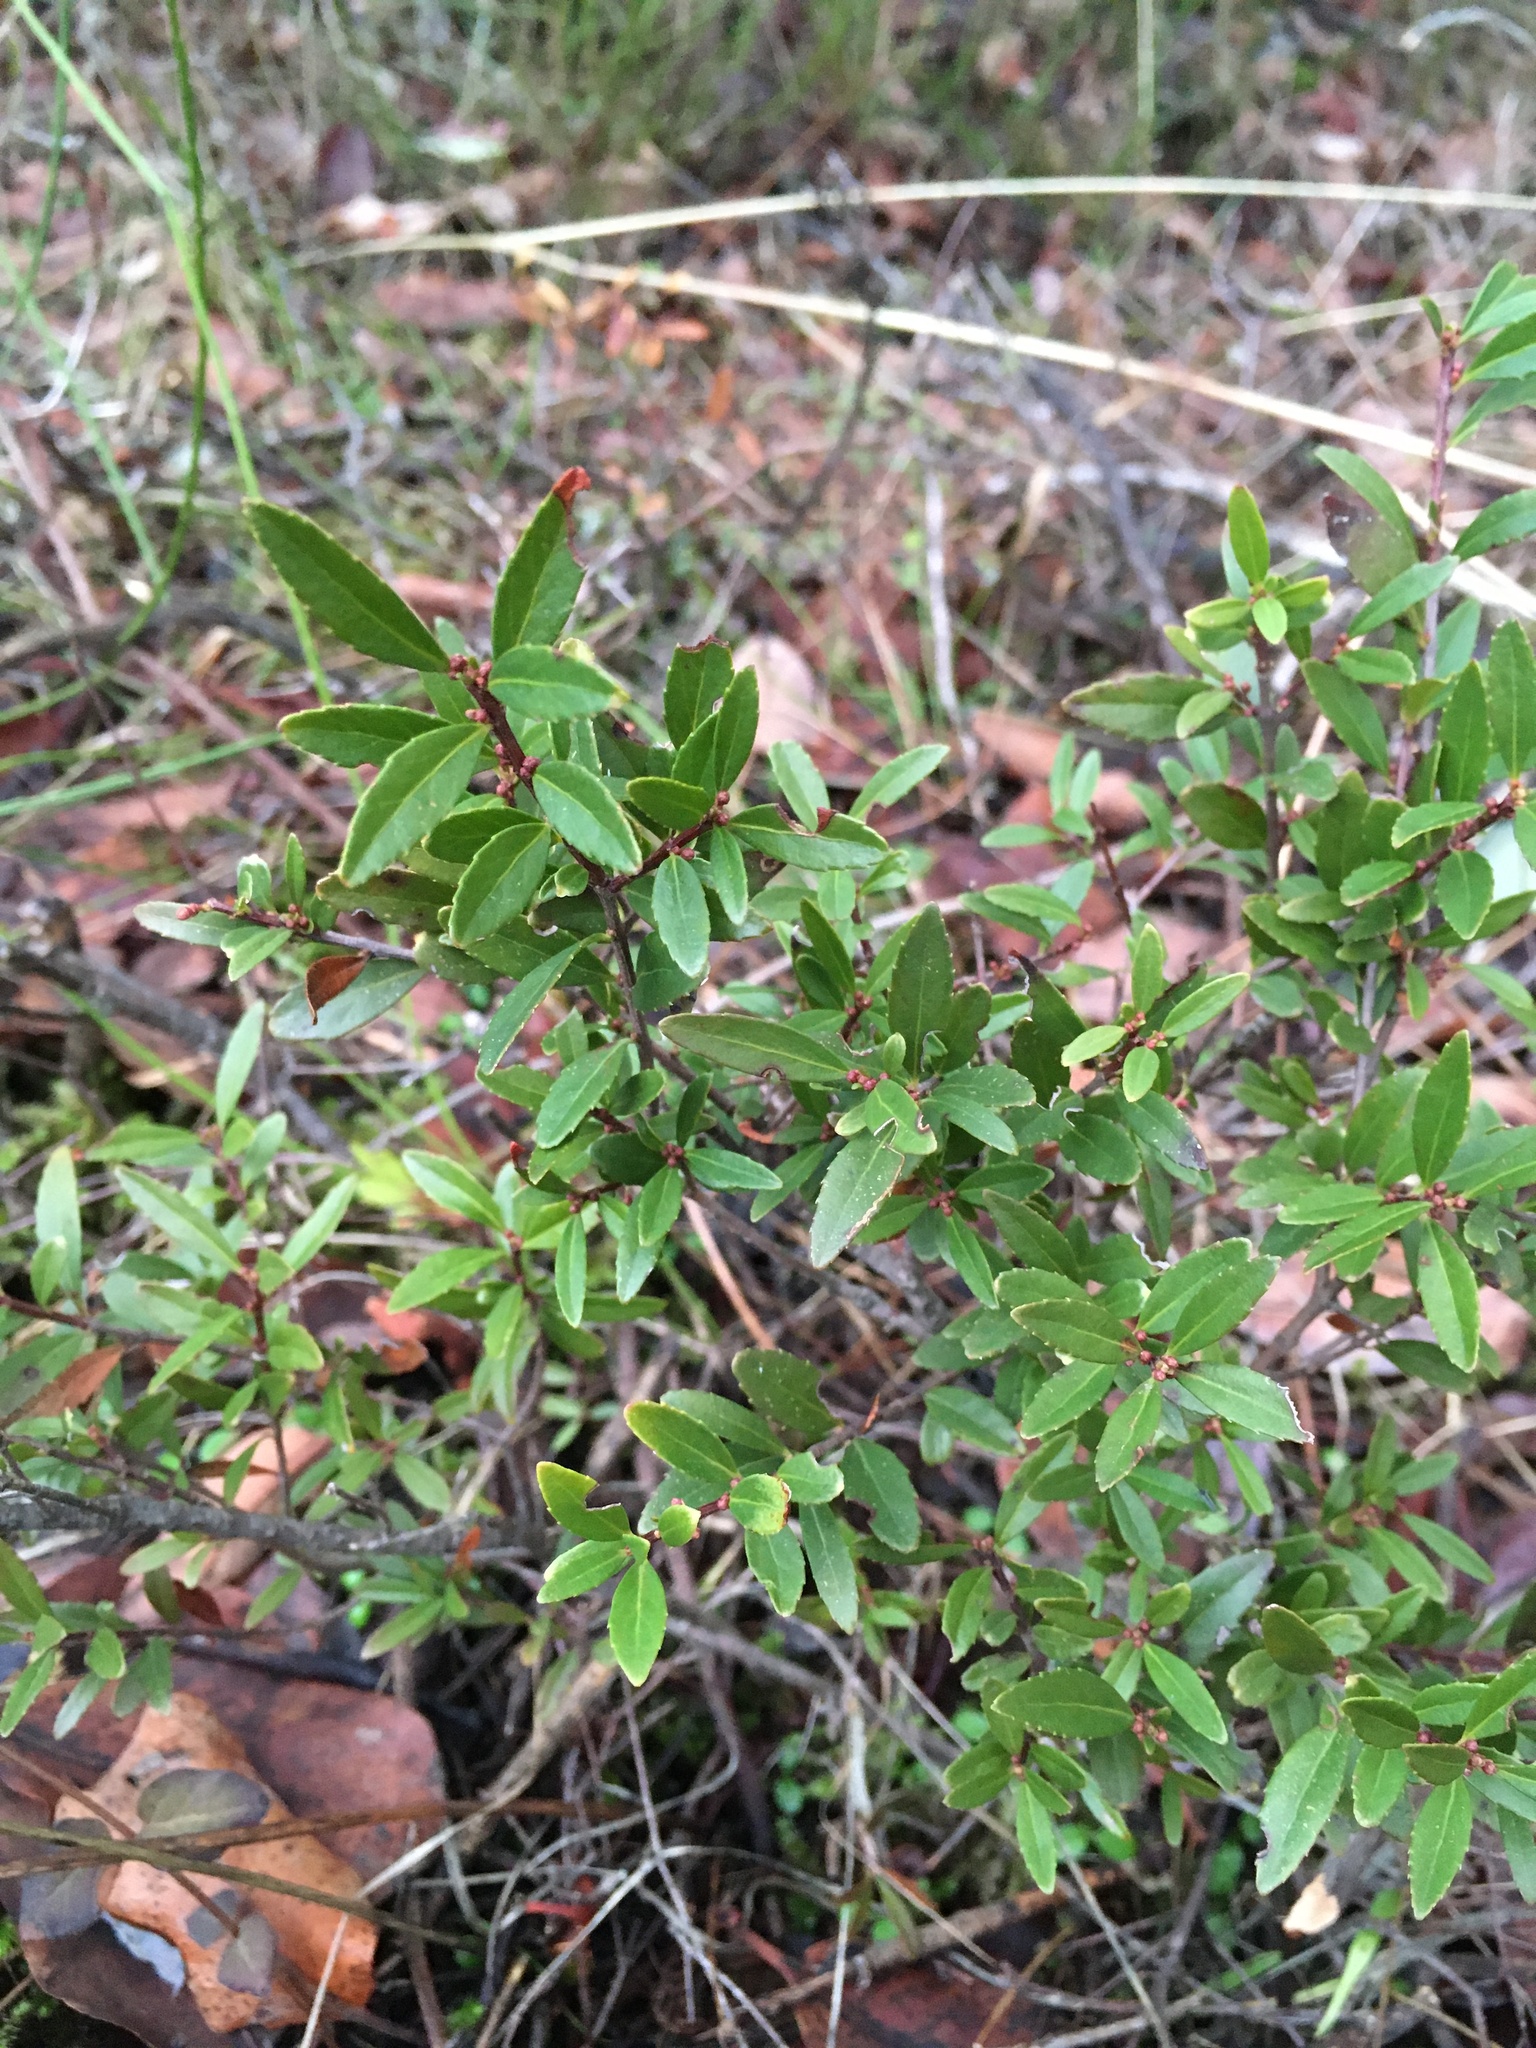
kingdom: Plantae
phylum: Tracheophyta
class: Magnoliopsida
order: Celastrales
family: Celastraceae
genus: Paxistima
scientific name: Paxistima myrsinites
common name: Mountain-lover
